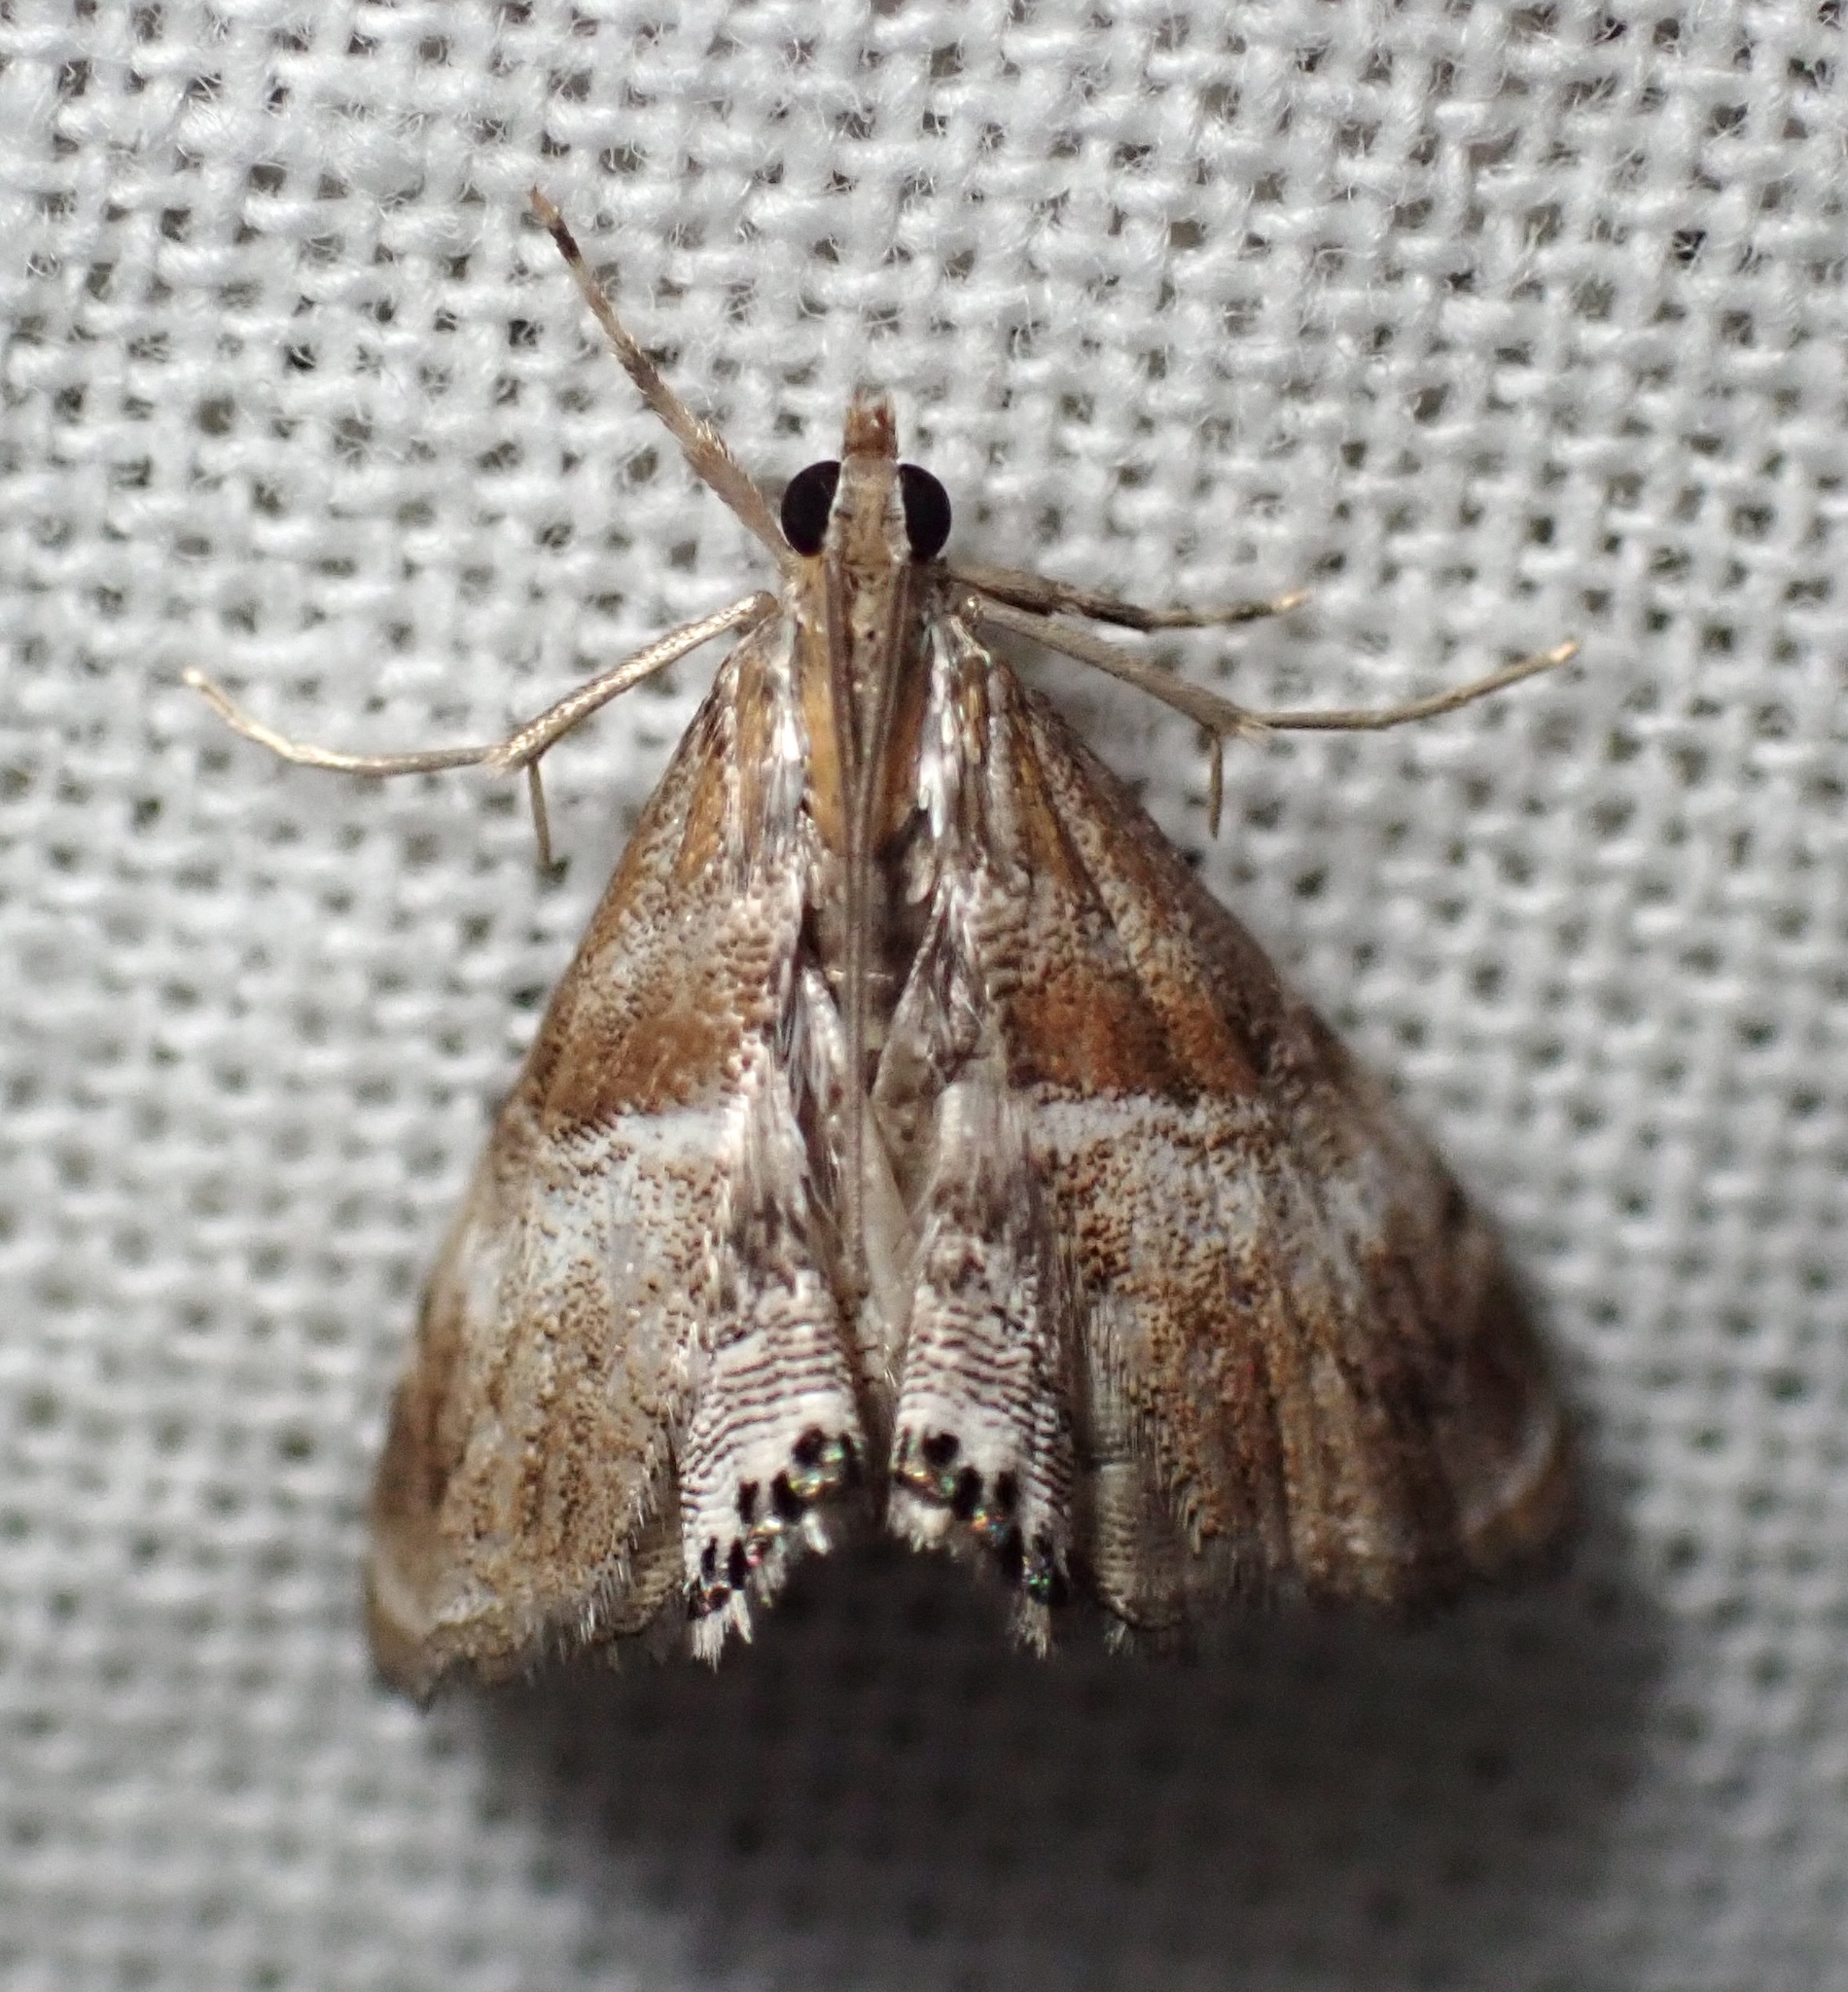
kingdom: Animalia
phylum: Arthropoda
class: Insecta
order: Lepidoptera
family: Crambidae
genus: Dicymolomia
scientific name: Dicymolomia metalliferalis
